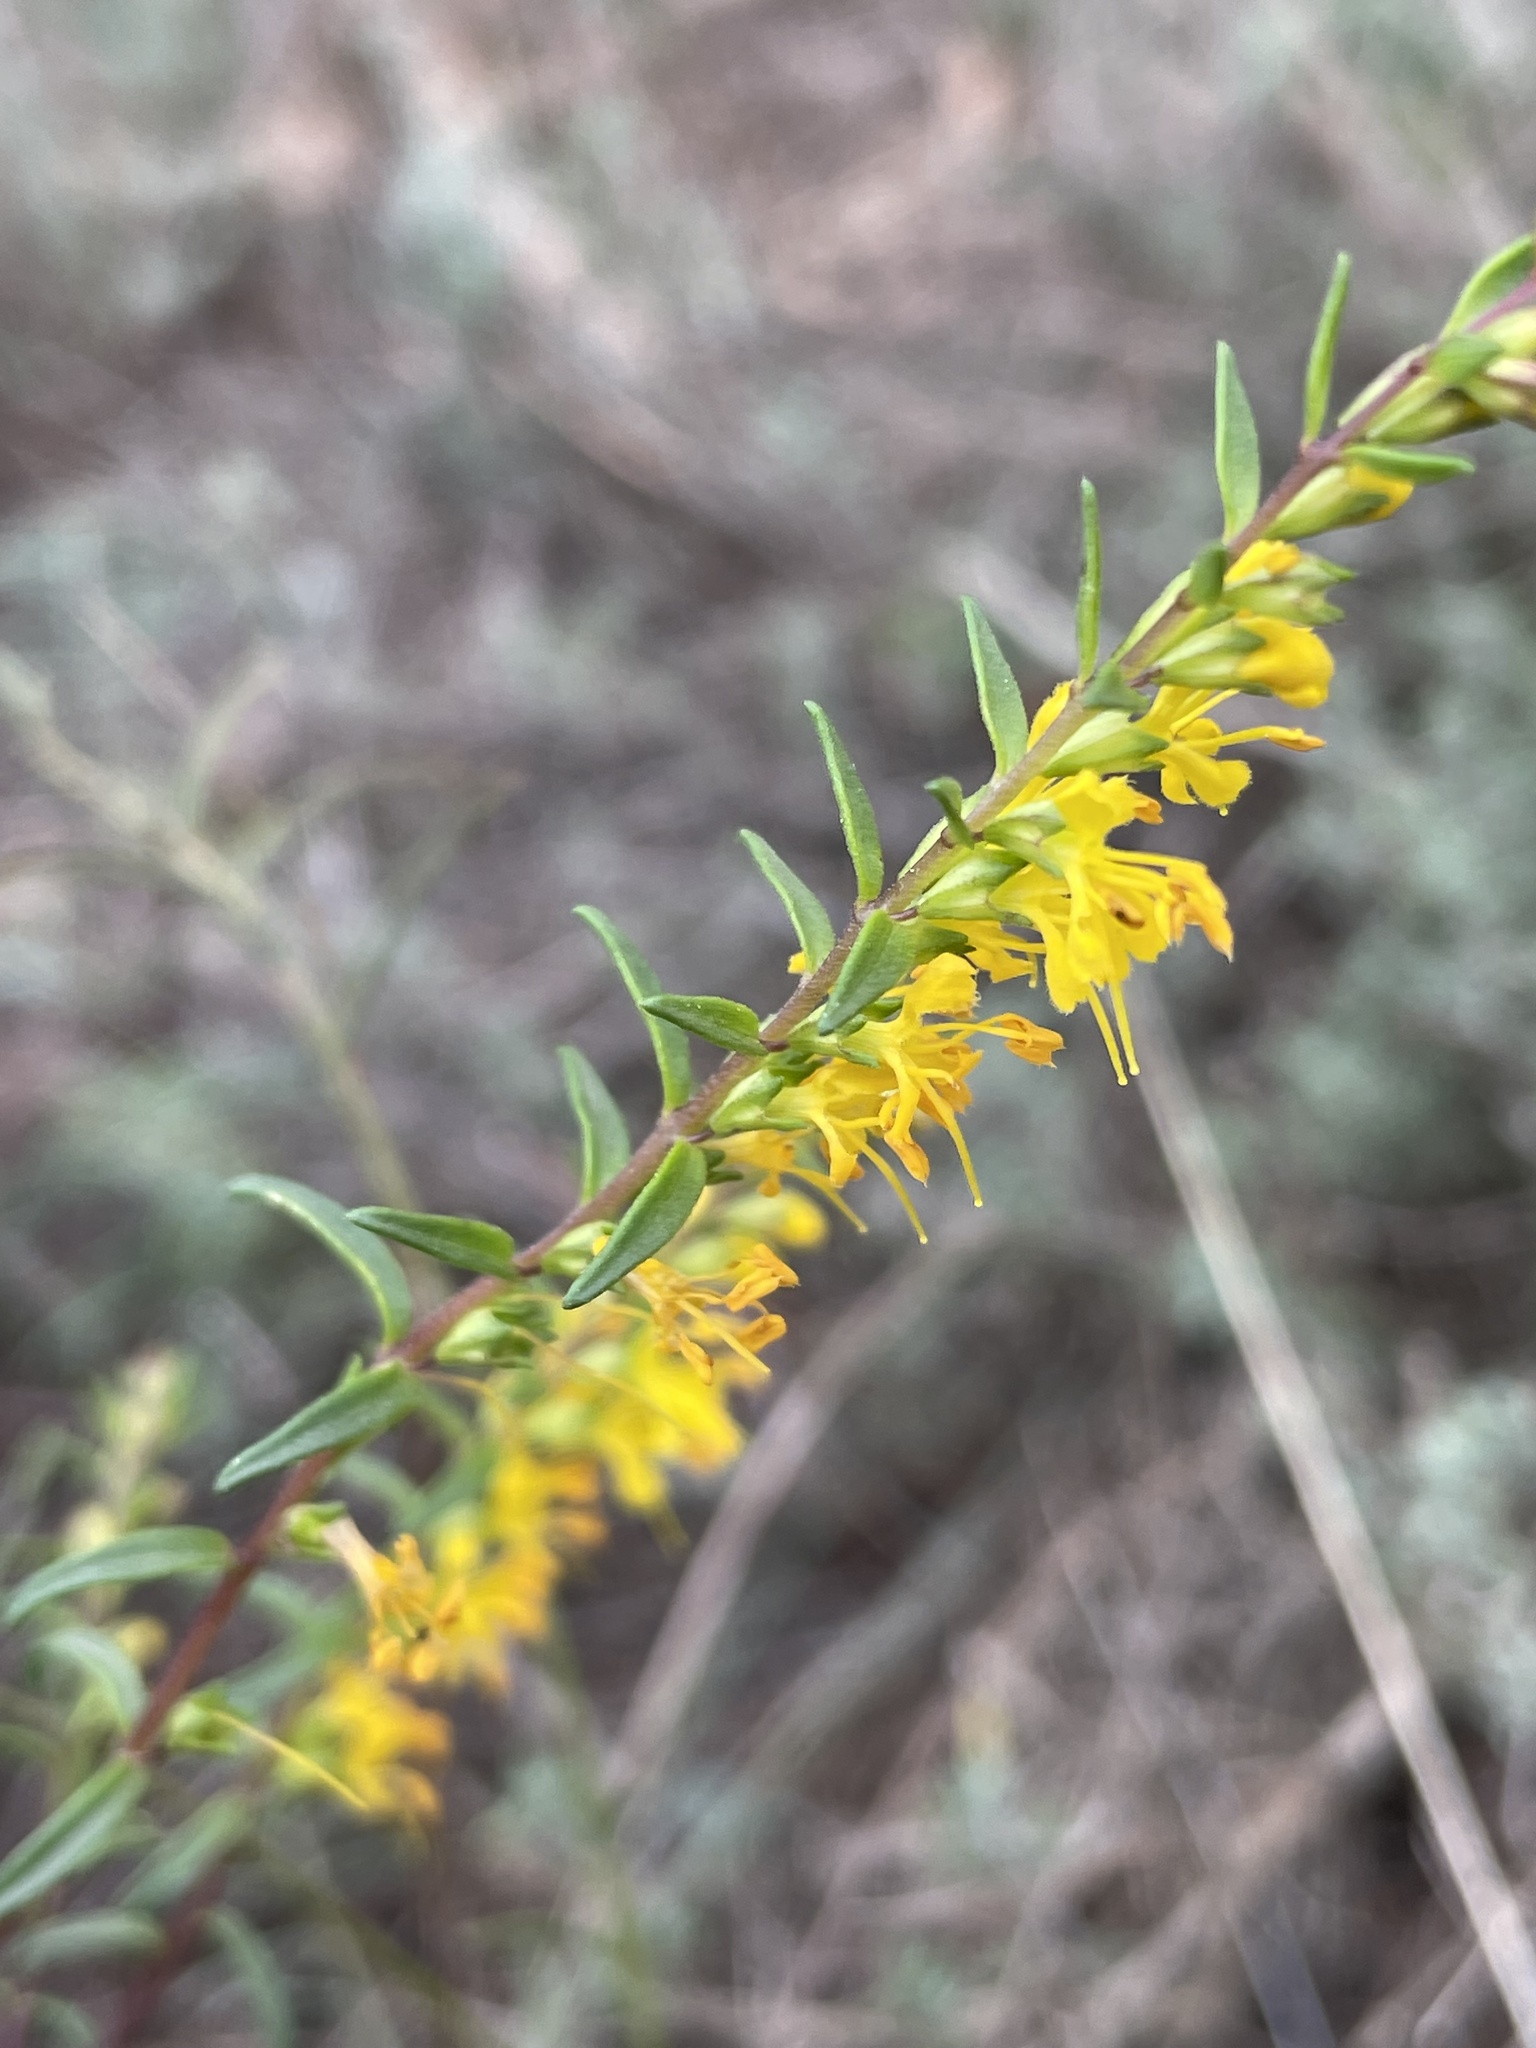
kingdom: Plantae
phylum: Tracheophyta
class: Magnoliopsida
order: Lamiales
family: Orobanchaceae
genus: Odontites
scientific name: Odontites luteus
